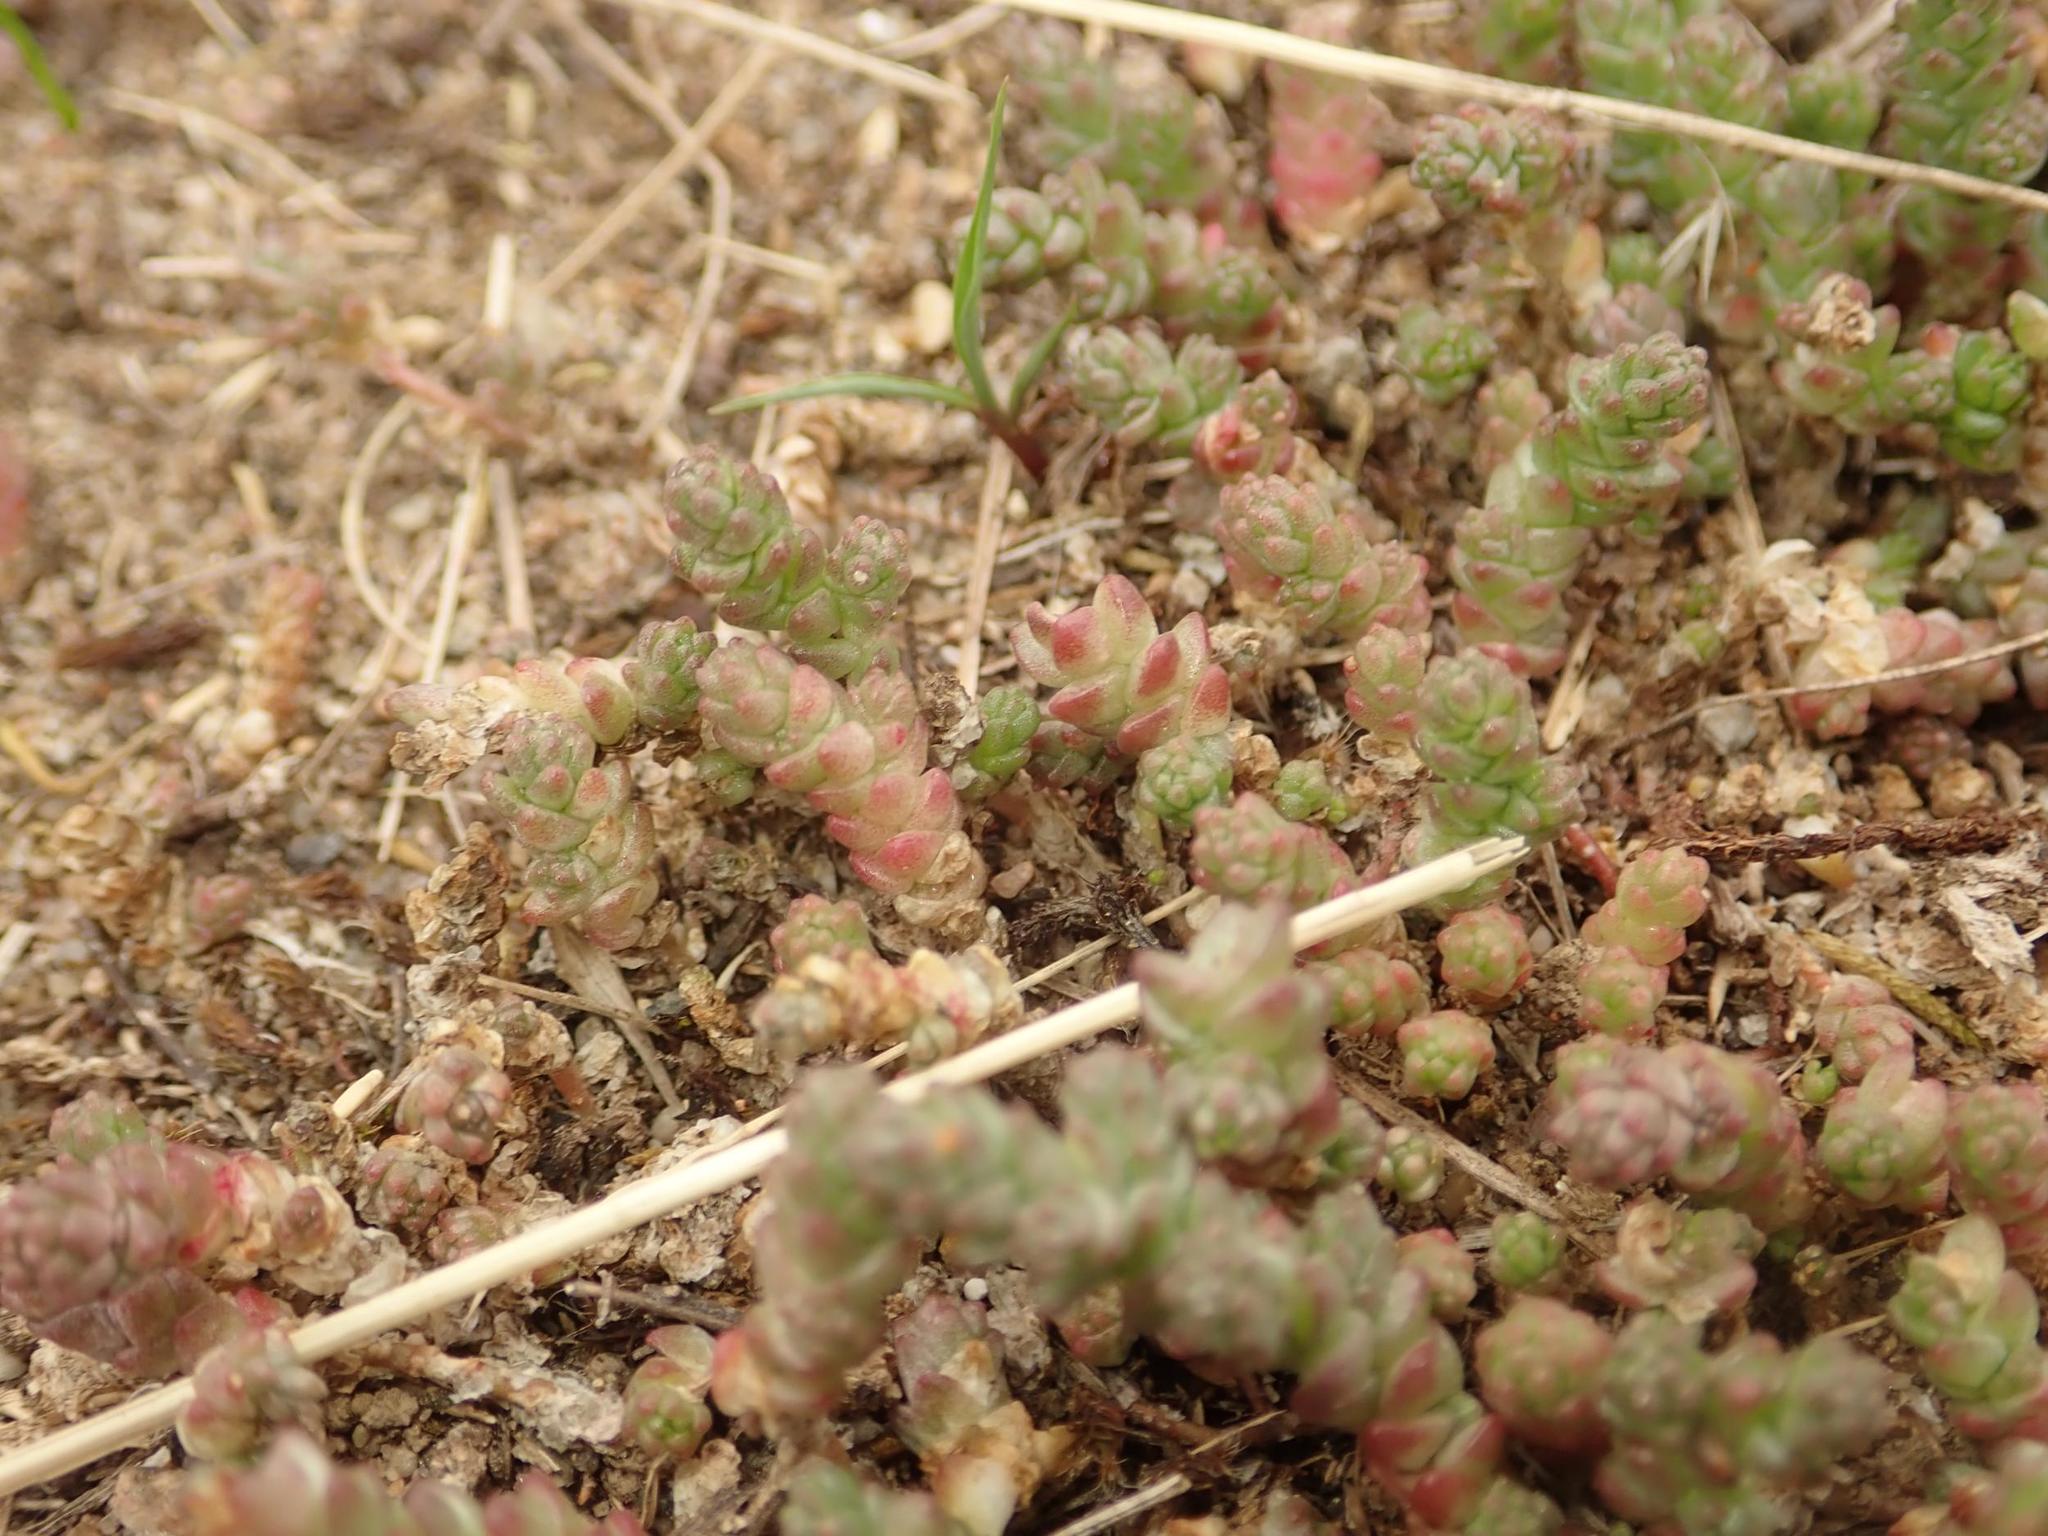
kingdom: Plantae
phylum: Tracheophyta
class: Magnoliopsida
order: Saxifragales
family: Crassulaceae
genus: Sedum
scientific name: Sedum acre
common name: Biting stonecrop
